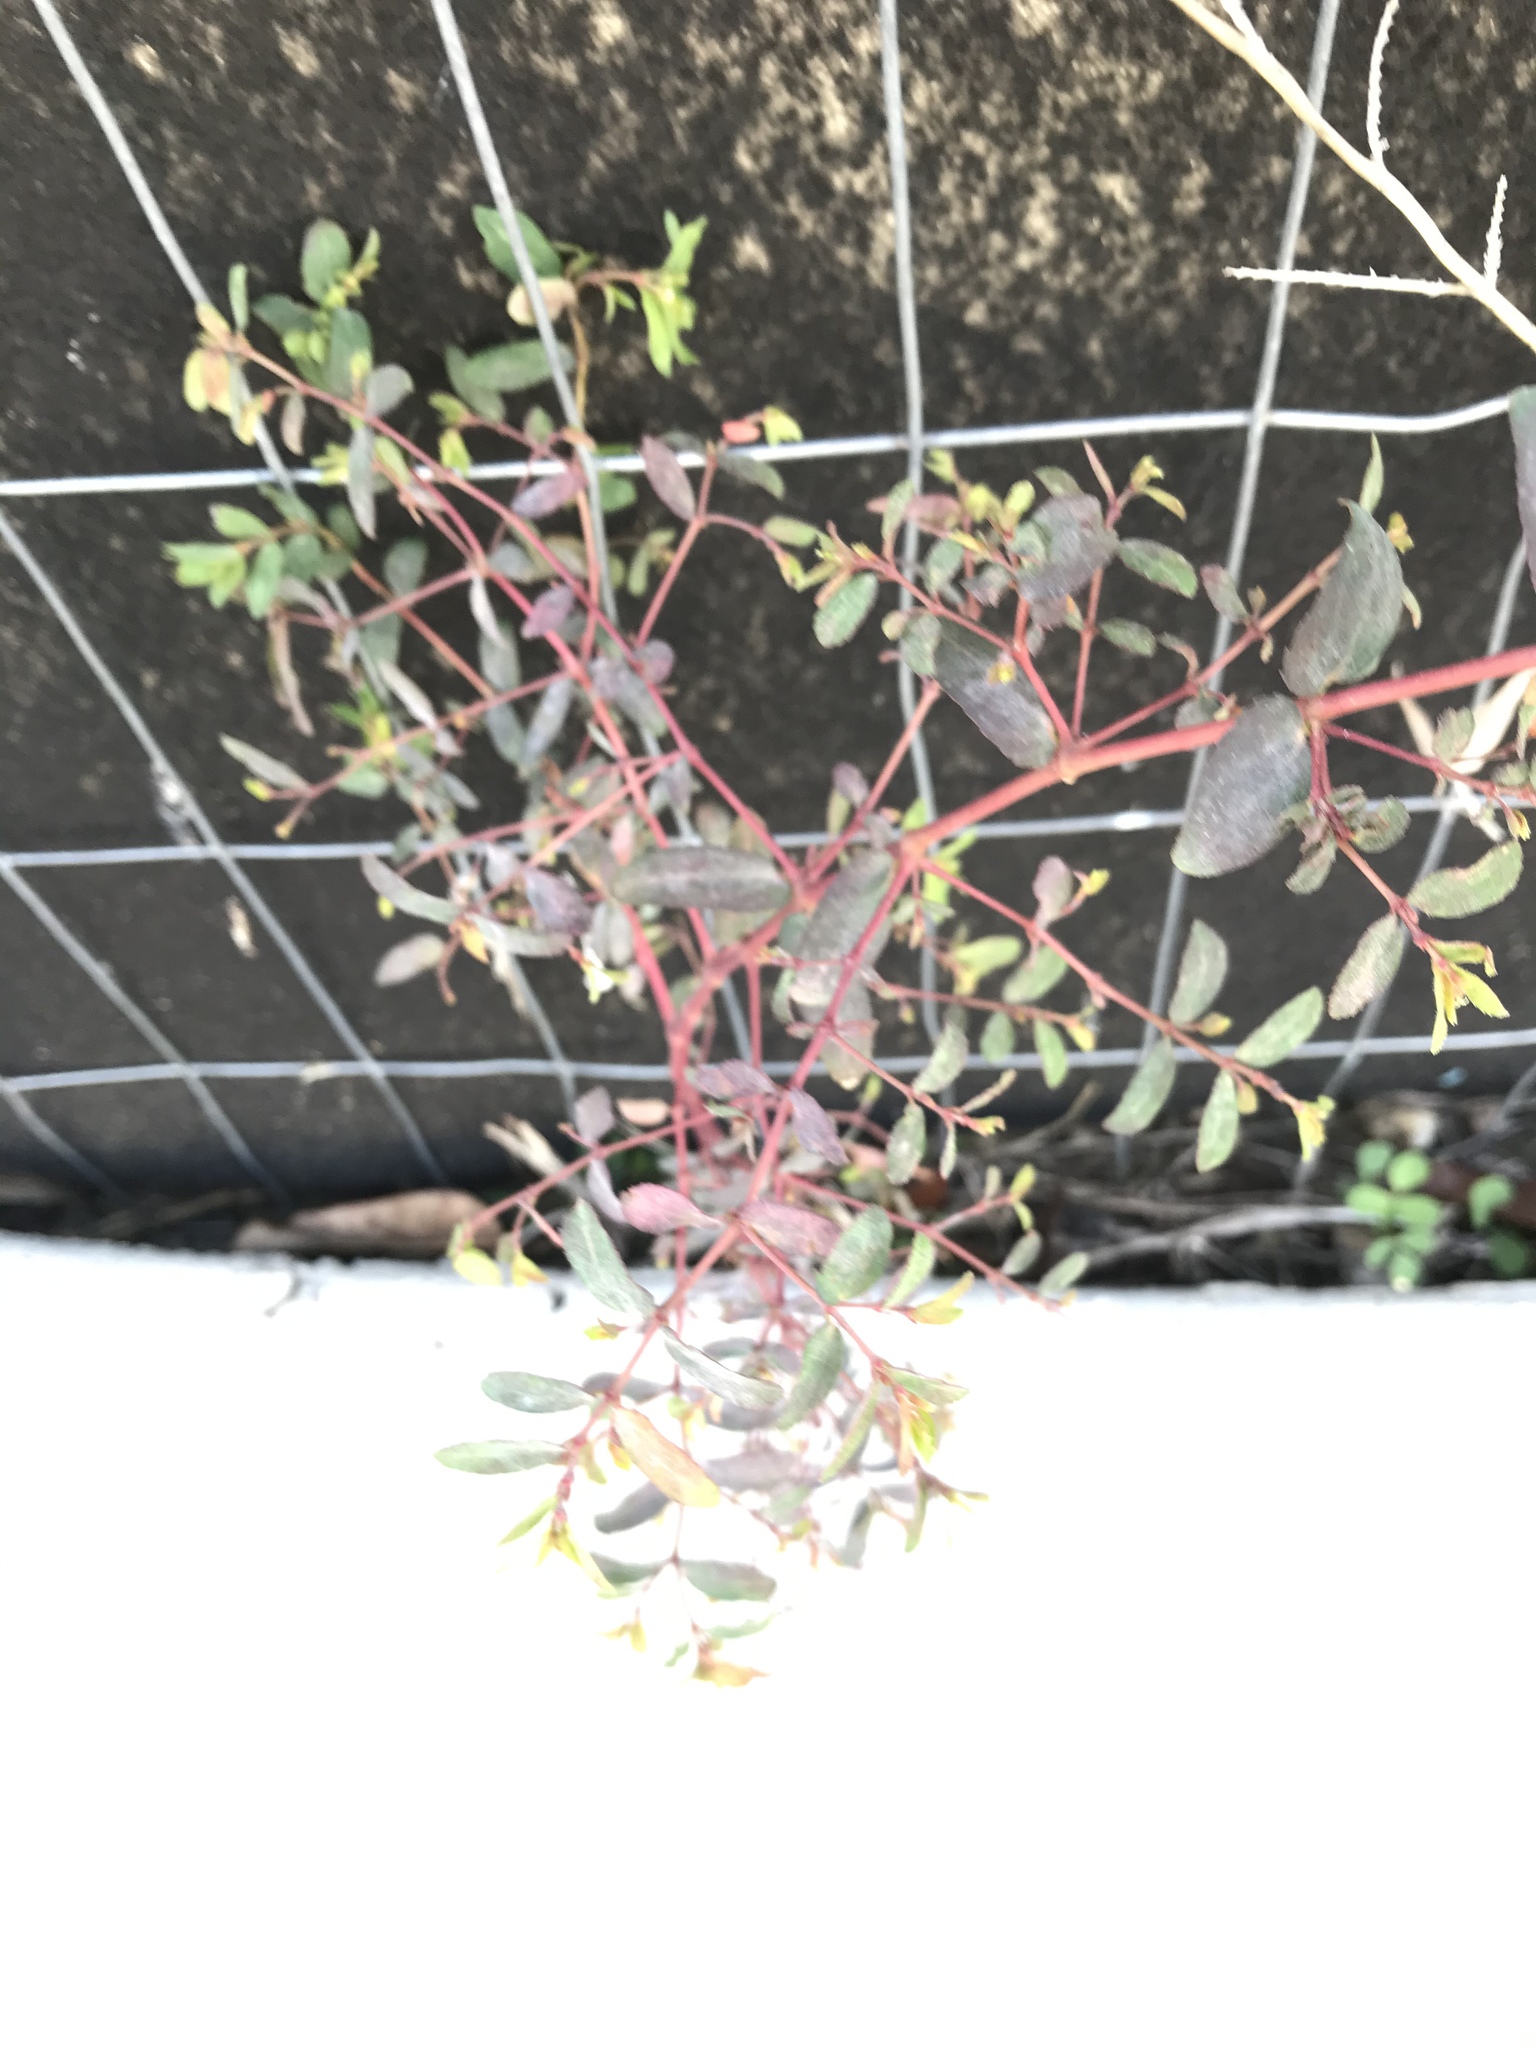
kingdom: Plantae
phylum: Tracheophyta
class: Magnoliopsida
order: Malpighiales
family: Euphorbiaceae
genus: Euphorbia
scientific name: Euphorbia nutans
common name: Eyebane
